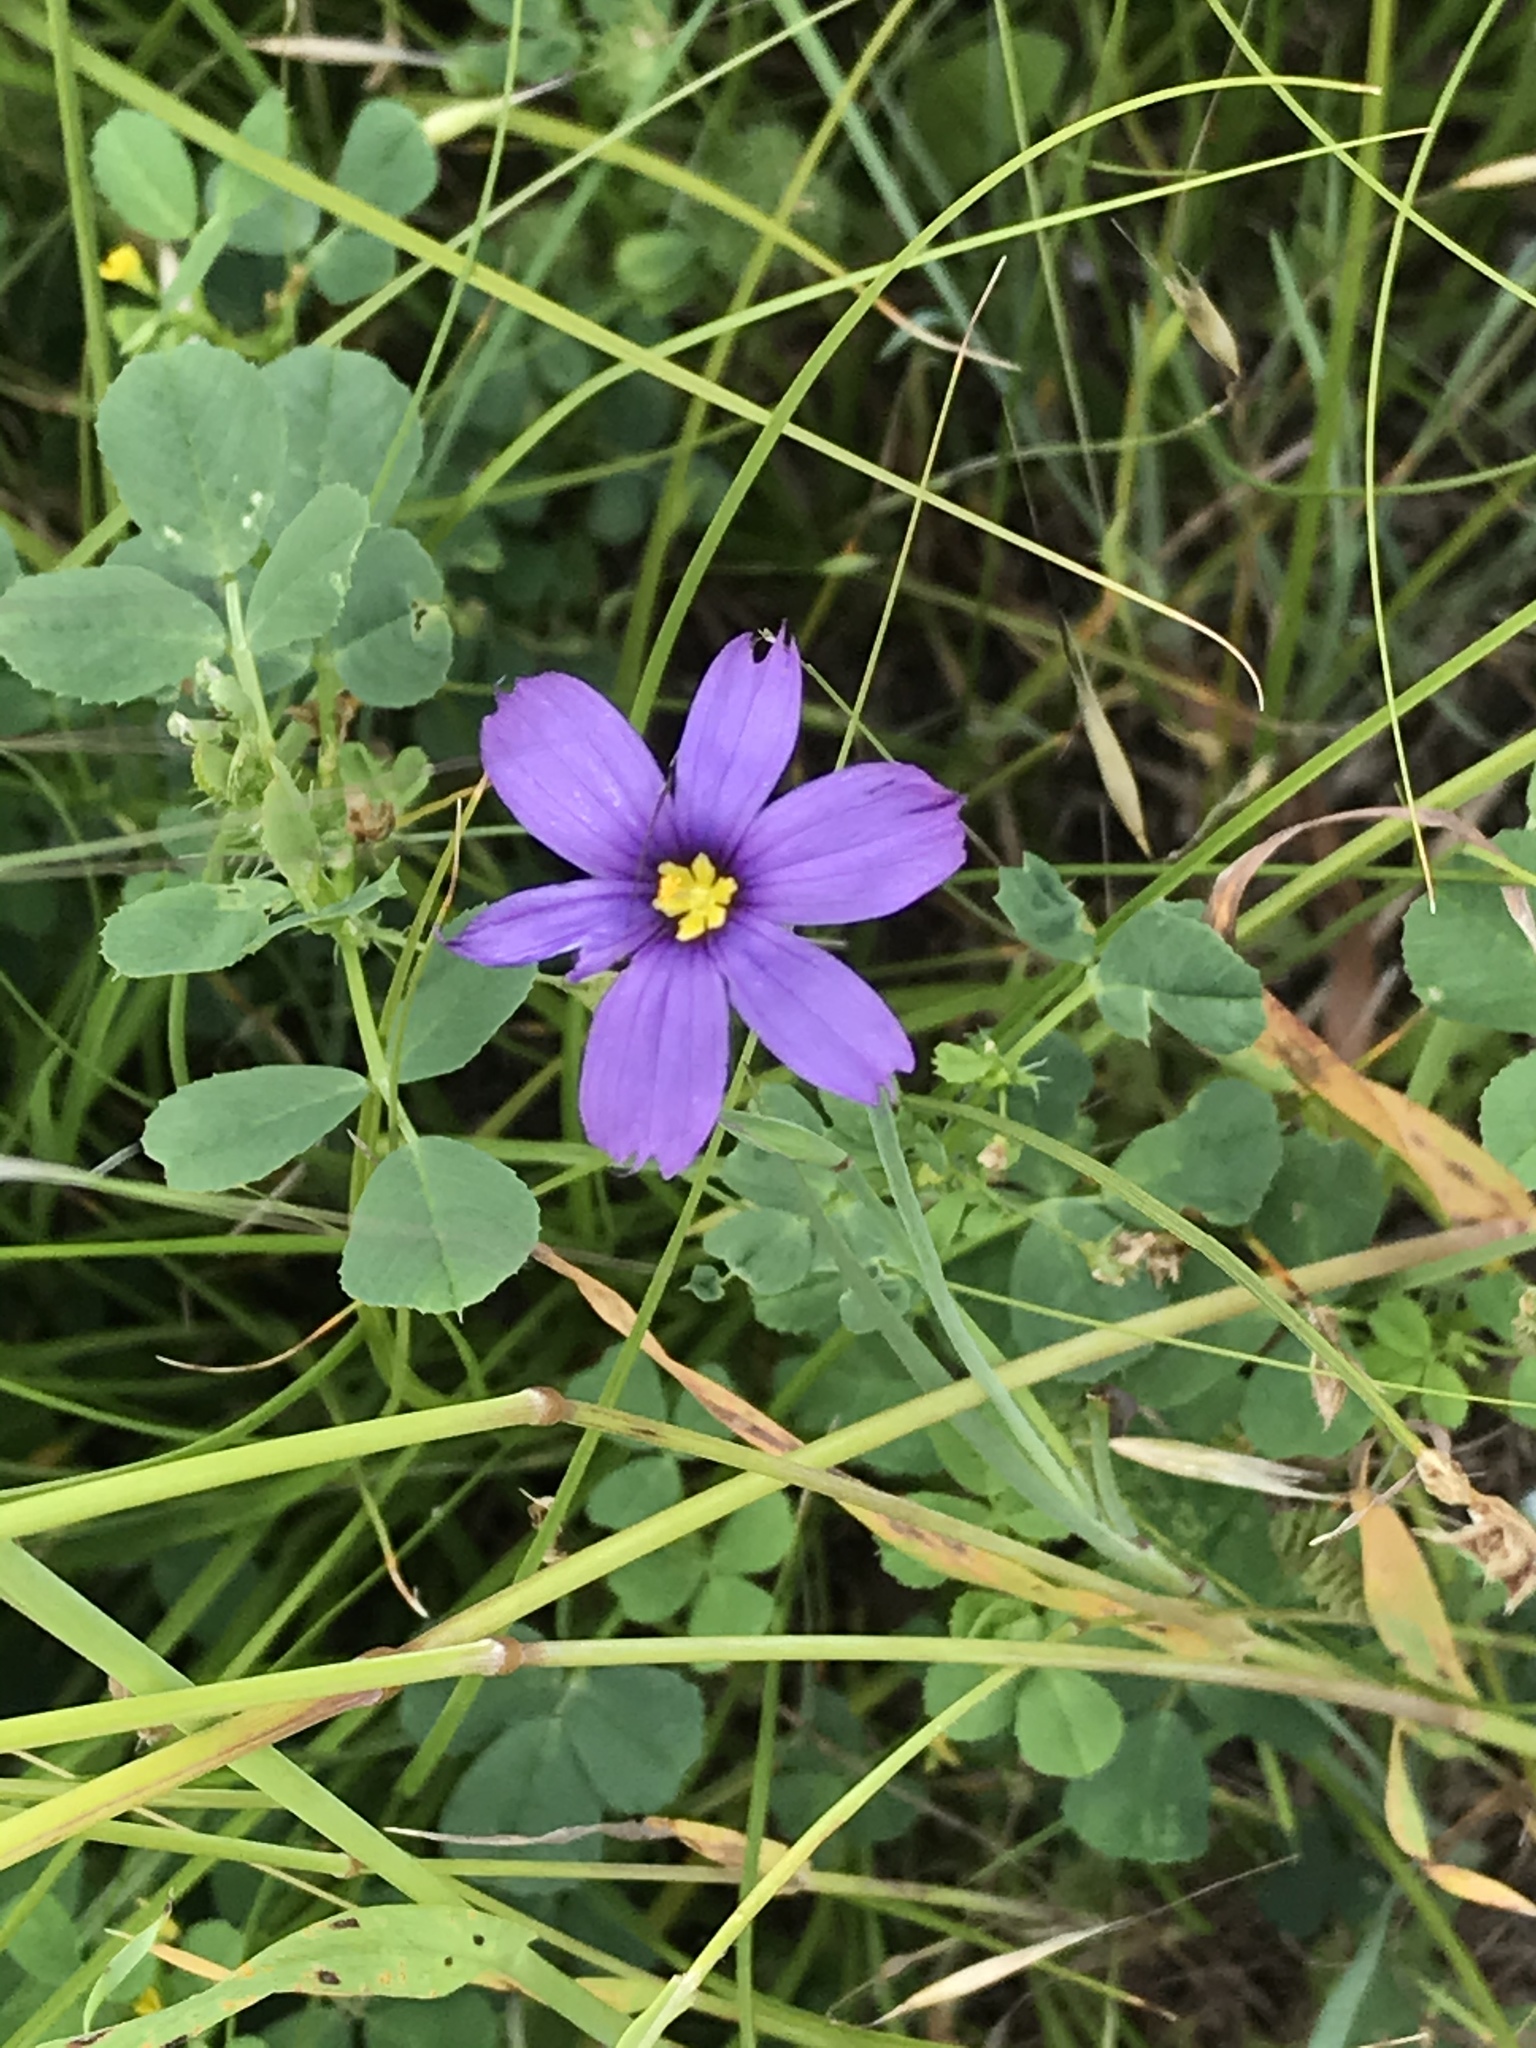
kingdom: Plantae
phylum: Tracheophyta
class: Liliopsida
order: Asparagales
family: Iridaceae
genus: Sisyrinchium
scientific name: Sisyrinchium bellum
